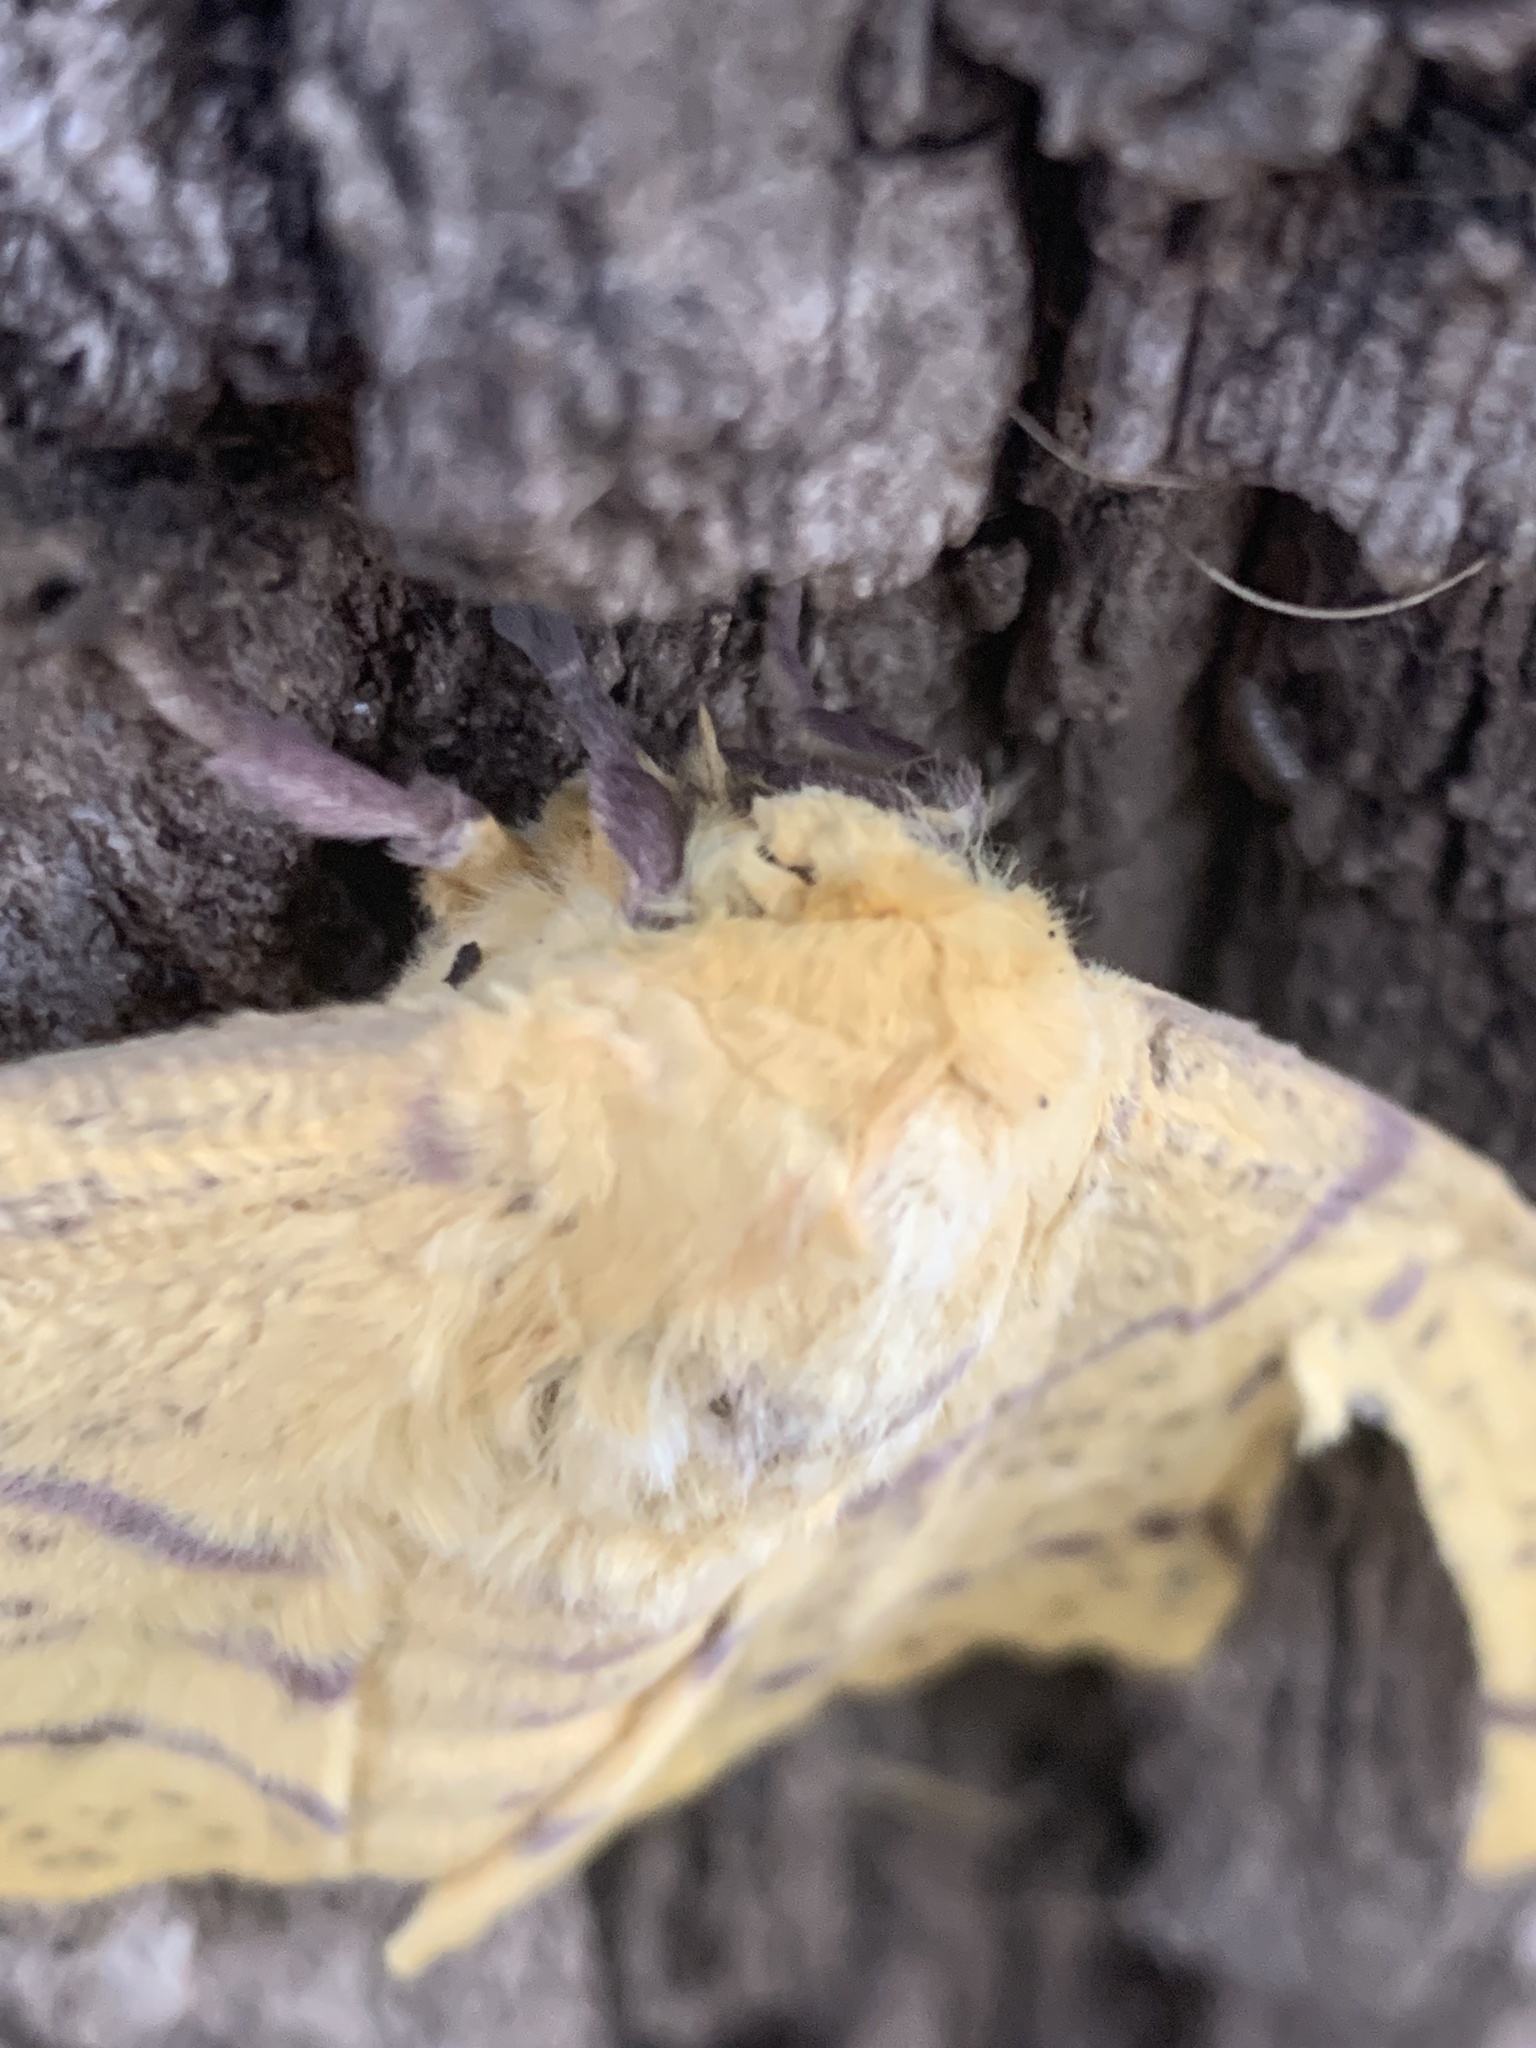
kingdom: Animalia
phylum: Arthropoda
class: Insecta
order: Lepidoptera
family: Saturniidae
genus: Eacles
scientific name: Eacles imperialis
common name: Imperial moth
